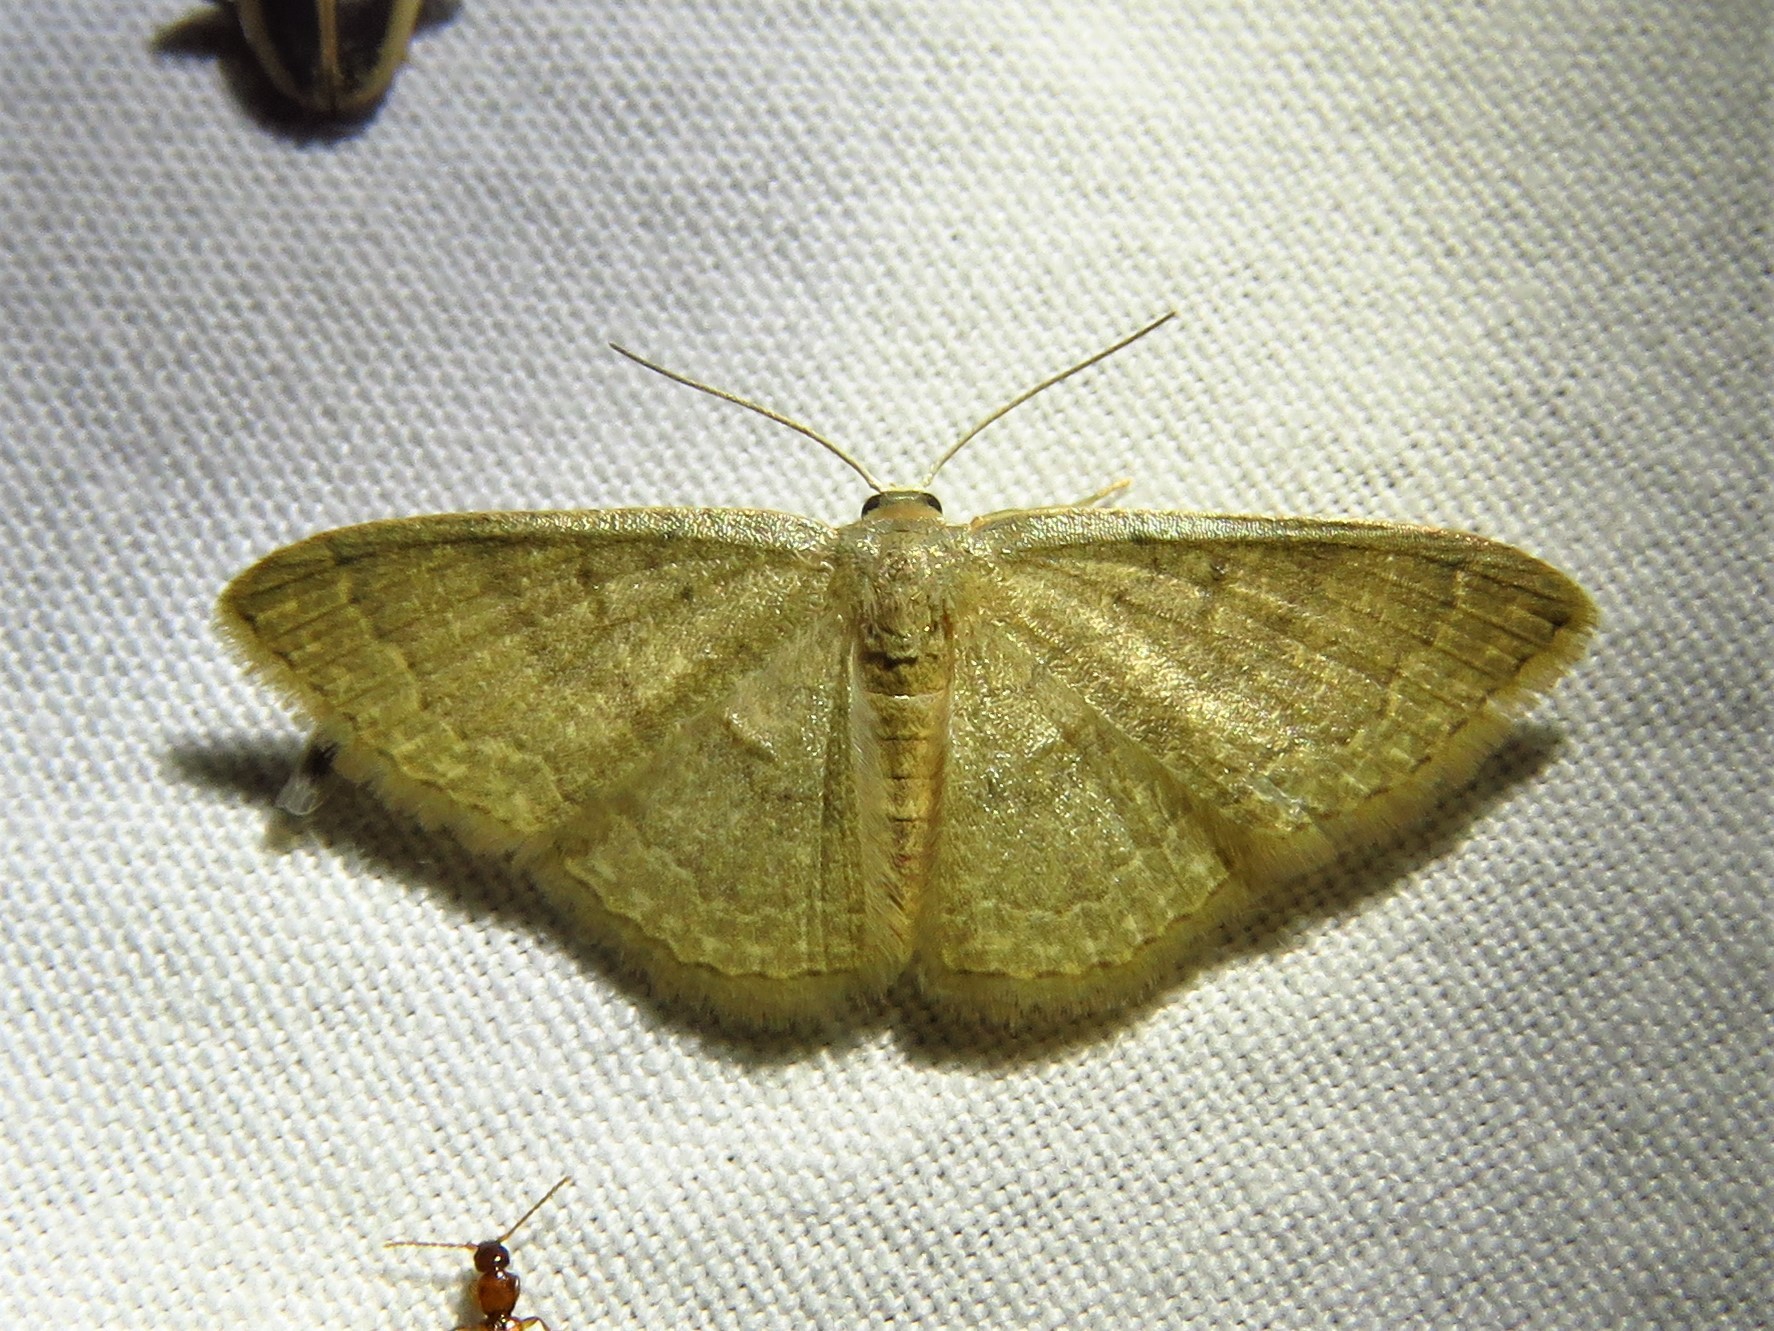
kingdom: Animalia
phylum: Arthropoda
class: Insecta
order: Lepidoptera
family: Geometridae
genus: Pleuroprucha
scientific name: Pleuroprucha insulsaria
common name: Common tan wave
